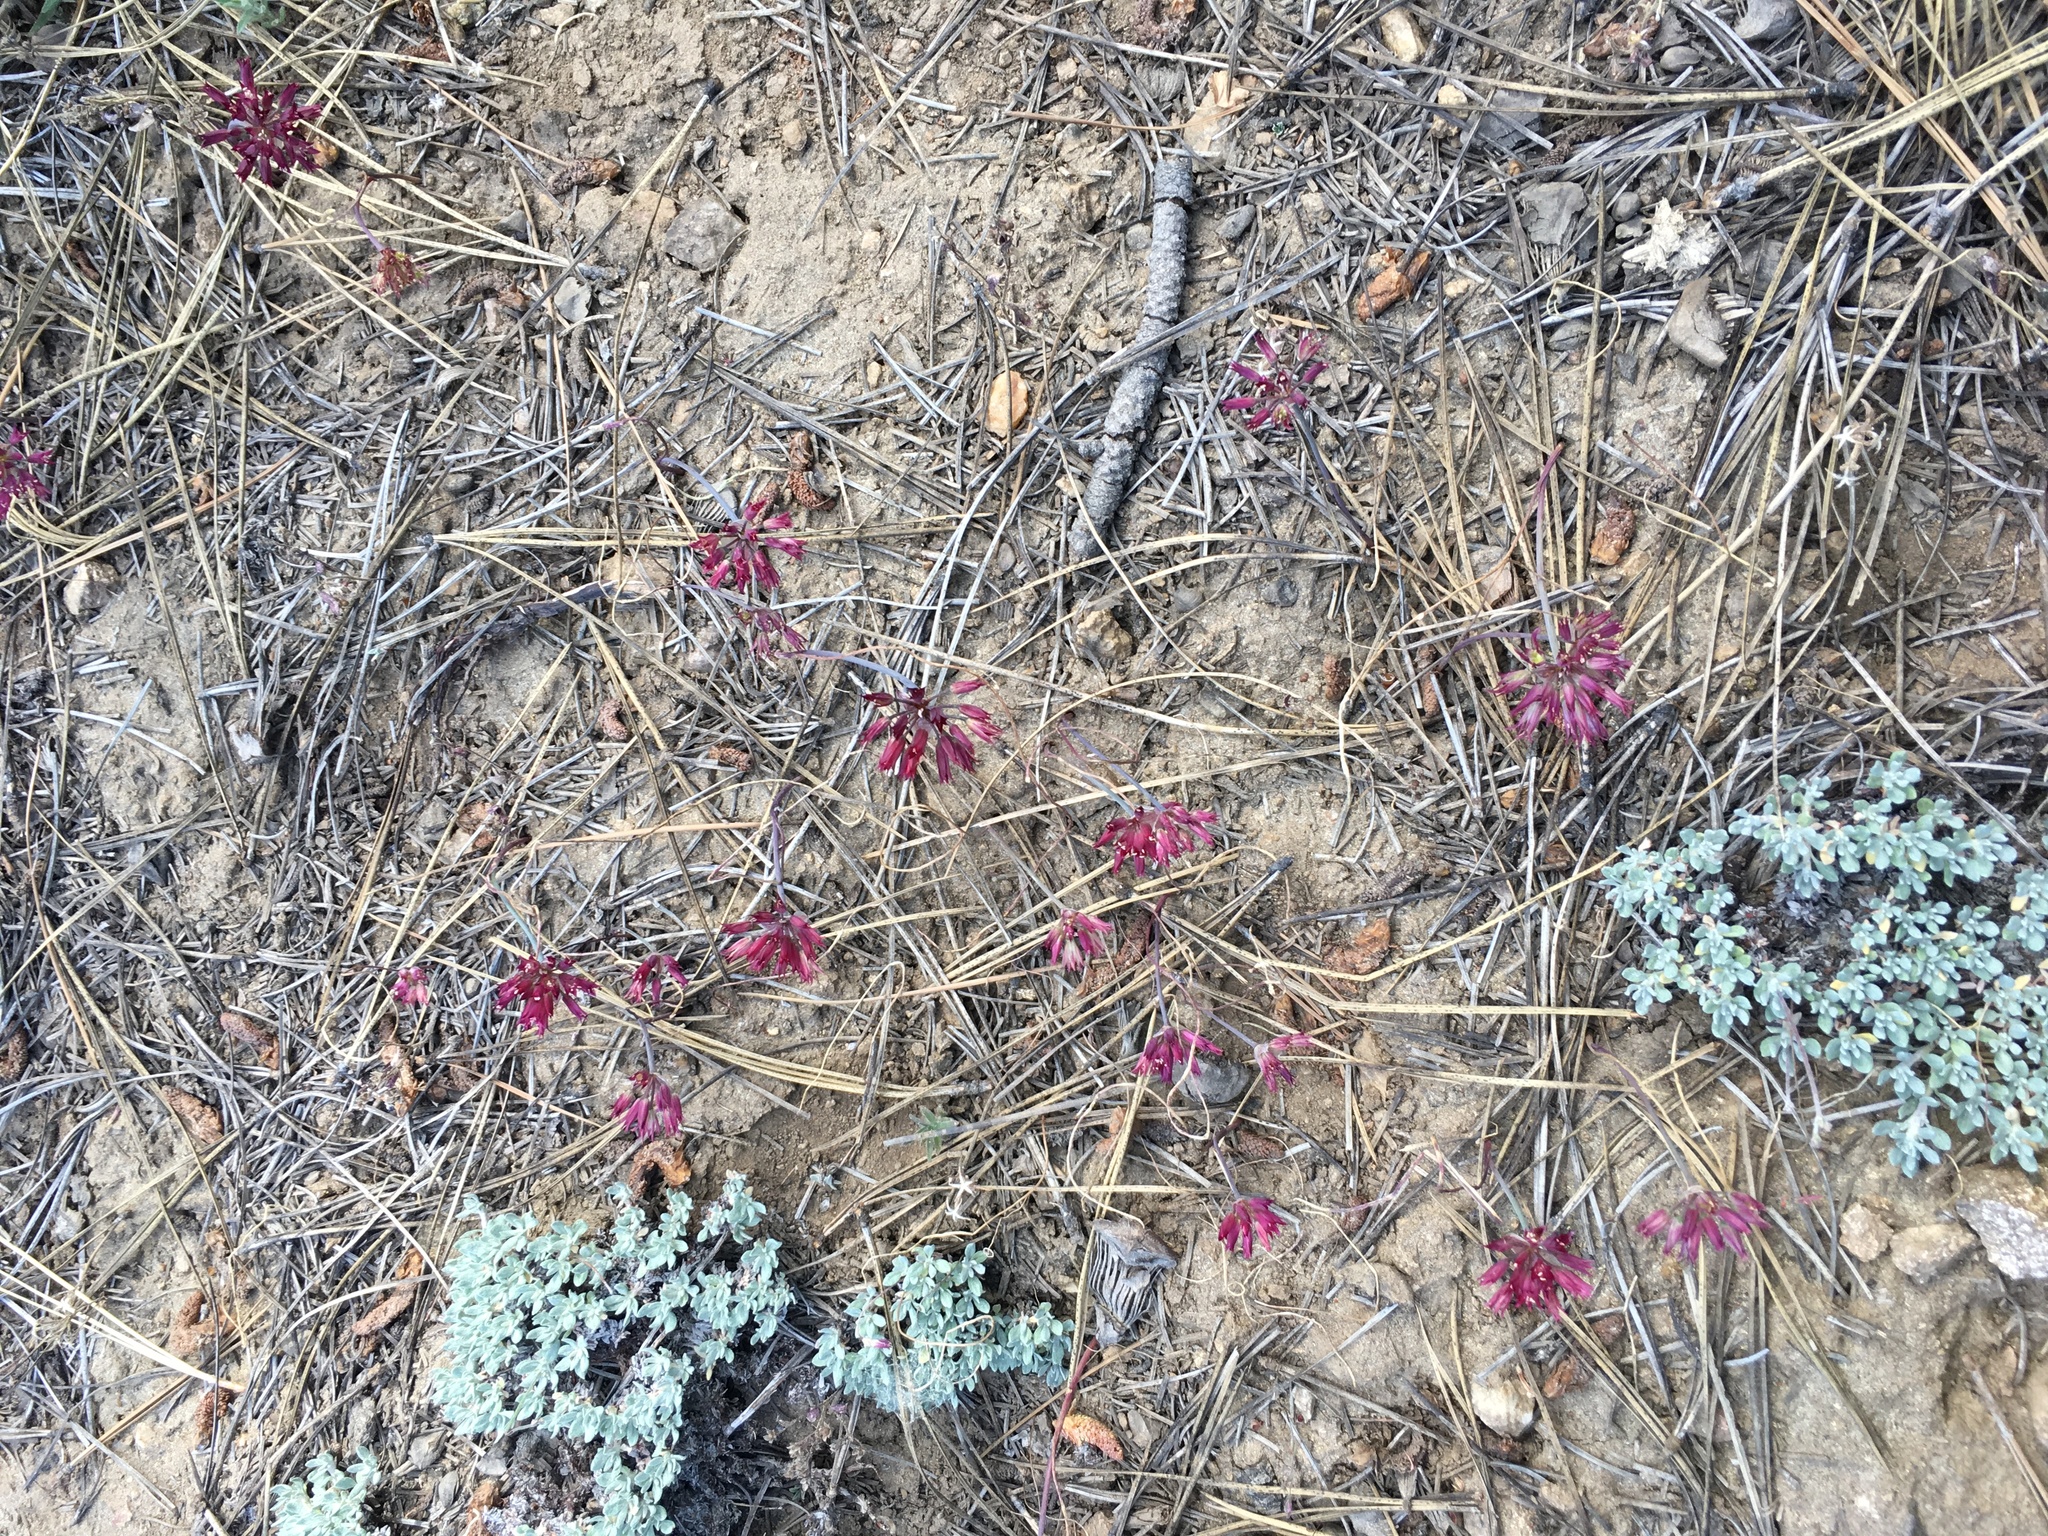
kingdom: Plantae
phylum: Tracheophyta
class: Liliopsida
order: Asparagales
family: Amaryllidaceae
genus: Allium
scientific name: Allium fimbriatum
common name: Fringed onion
